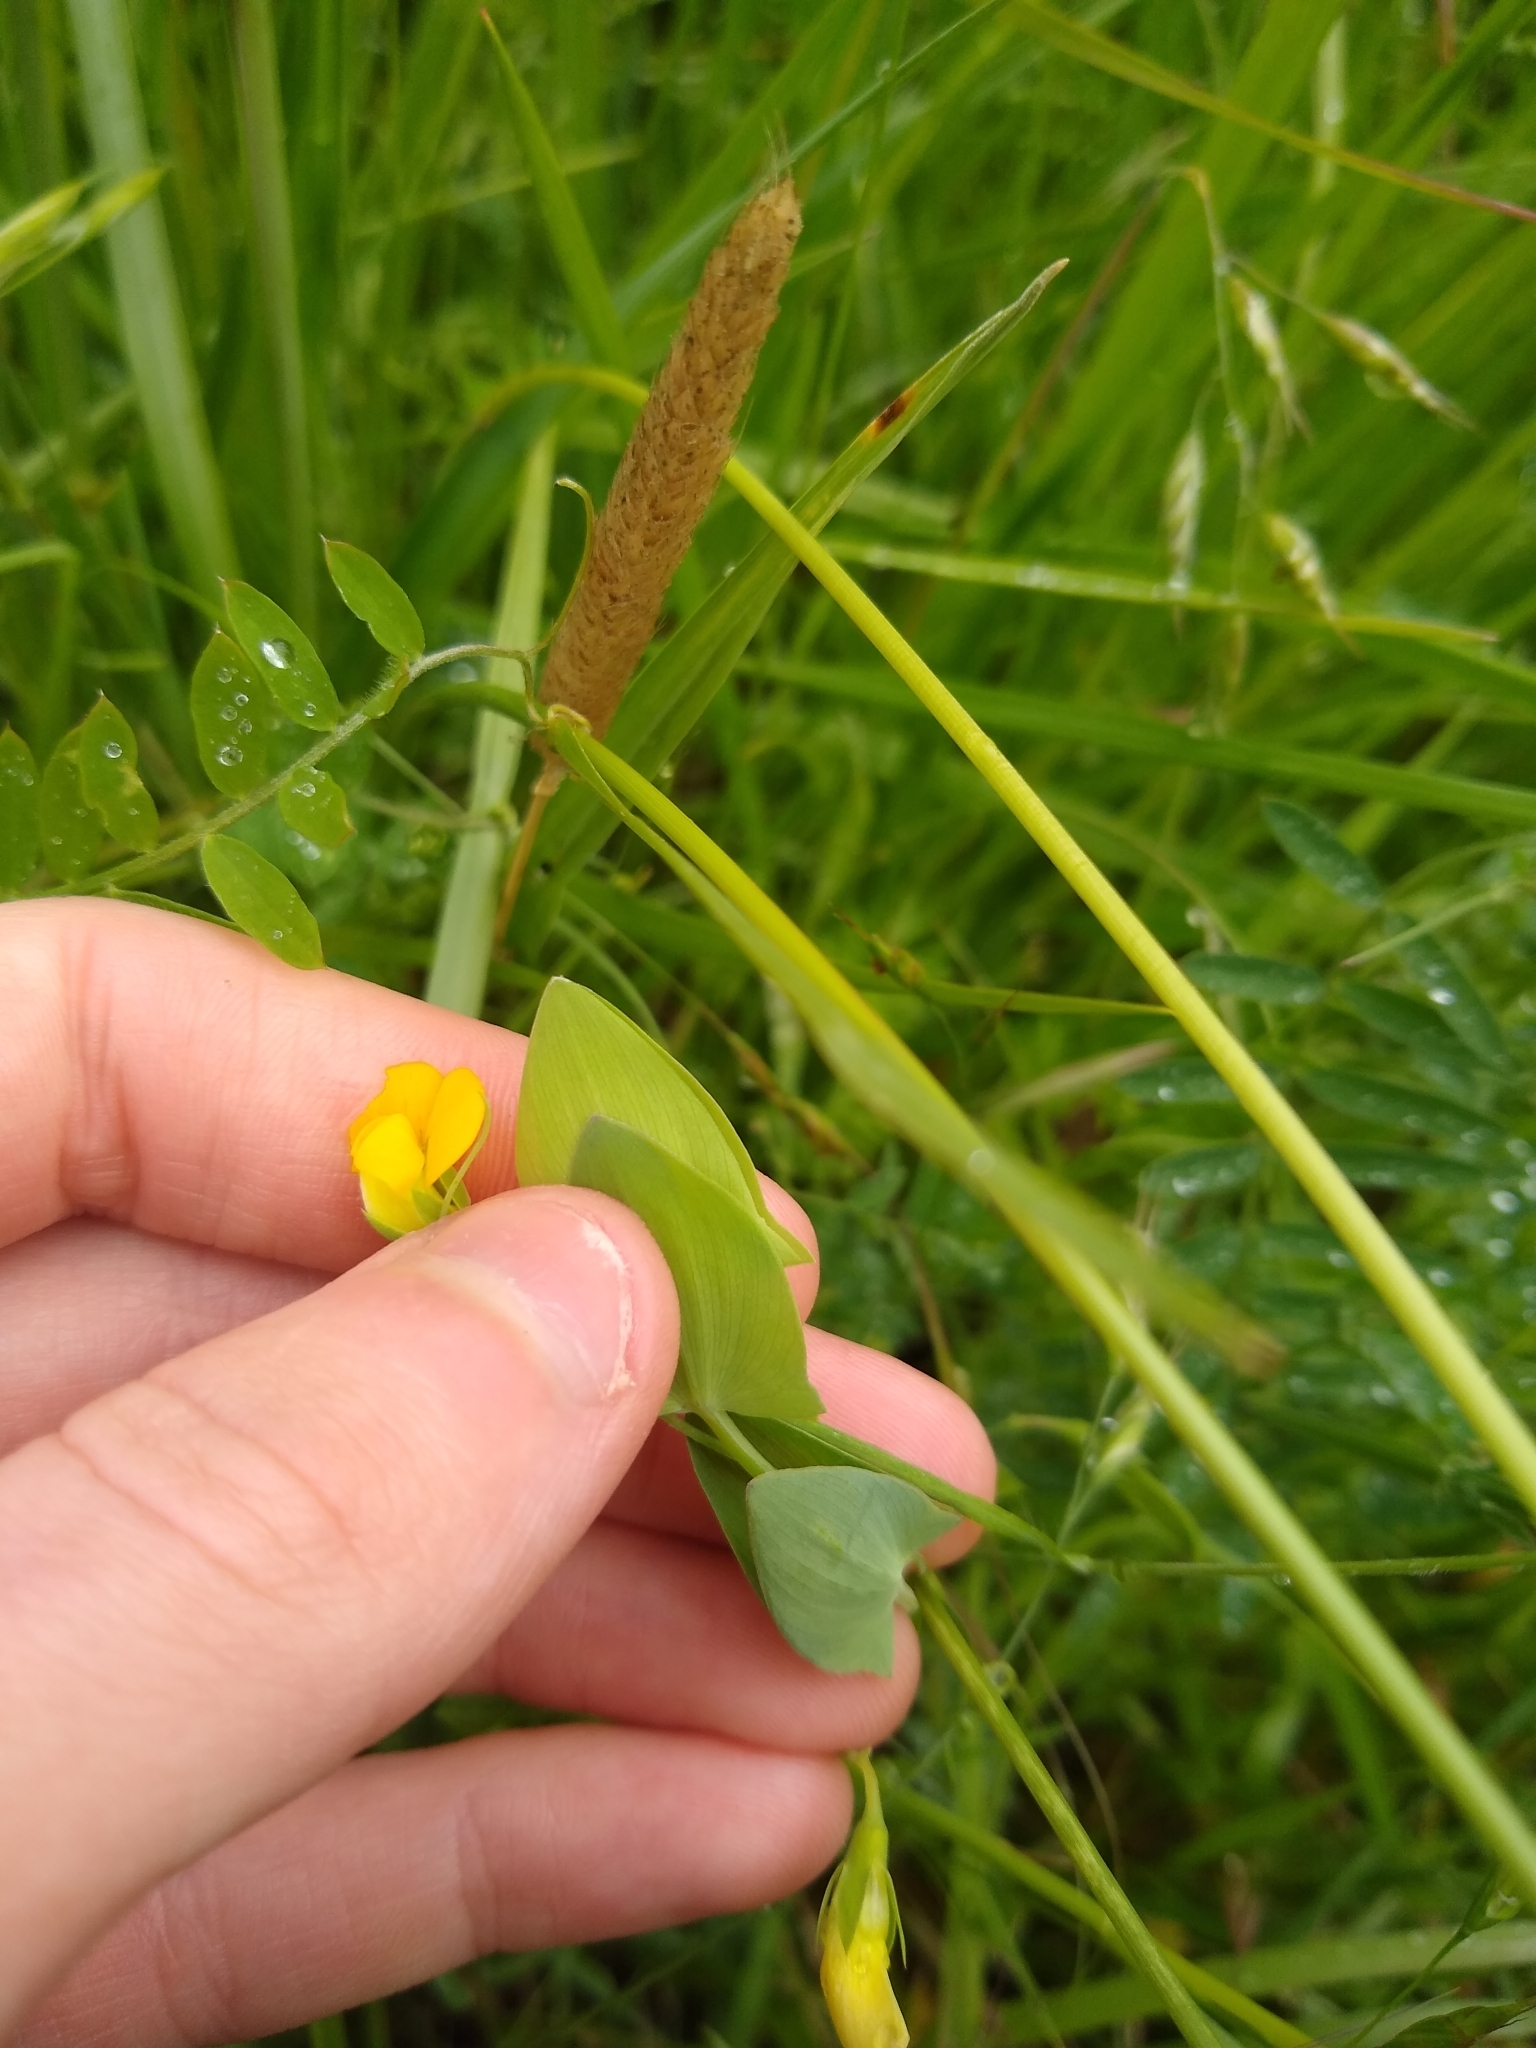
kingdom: Plantae
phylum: Tracheophyta
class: Magnoliopsida
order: Fabales
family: Fabaceae
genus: Lathyrus
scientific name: Lathyrus aphaca
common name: Yellow vetchling
